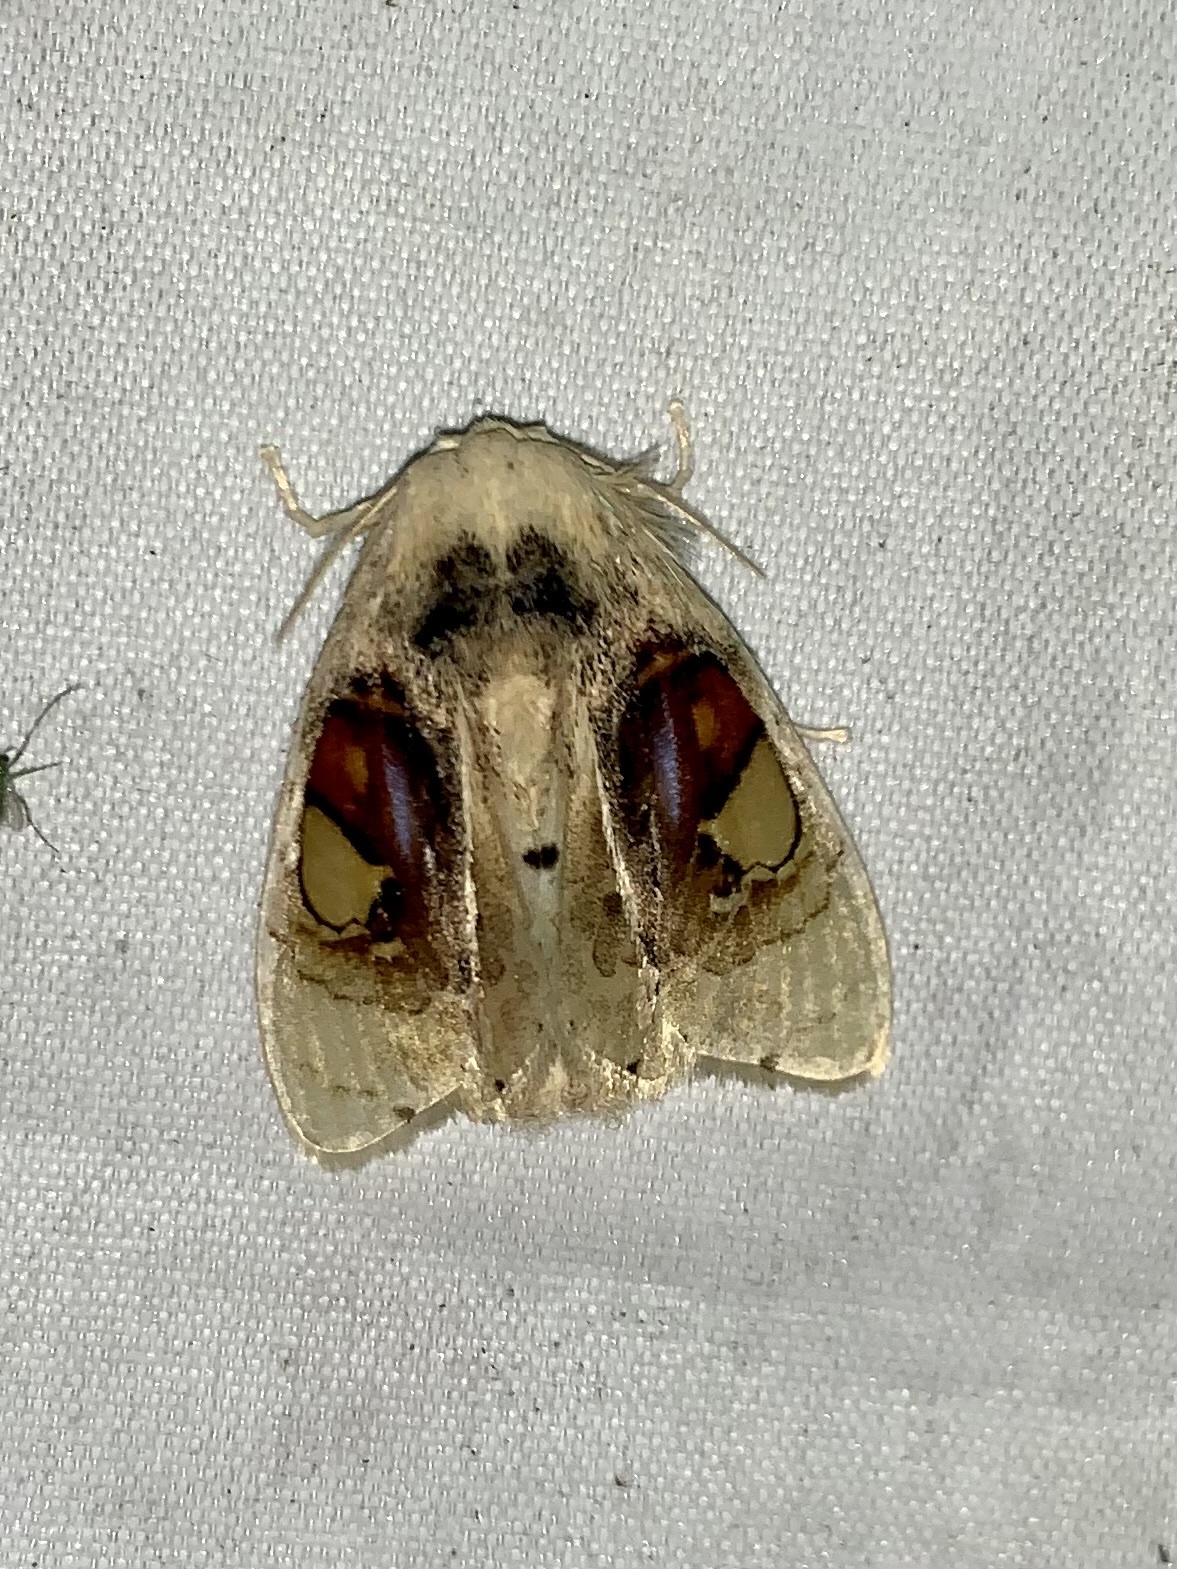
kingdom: Animalia
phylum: Arthropoda
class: Insecta
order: Lepidoptera
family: Psychidae
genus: Arrhenophanes
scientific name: Arrhenophanes perspicilla
